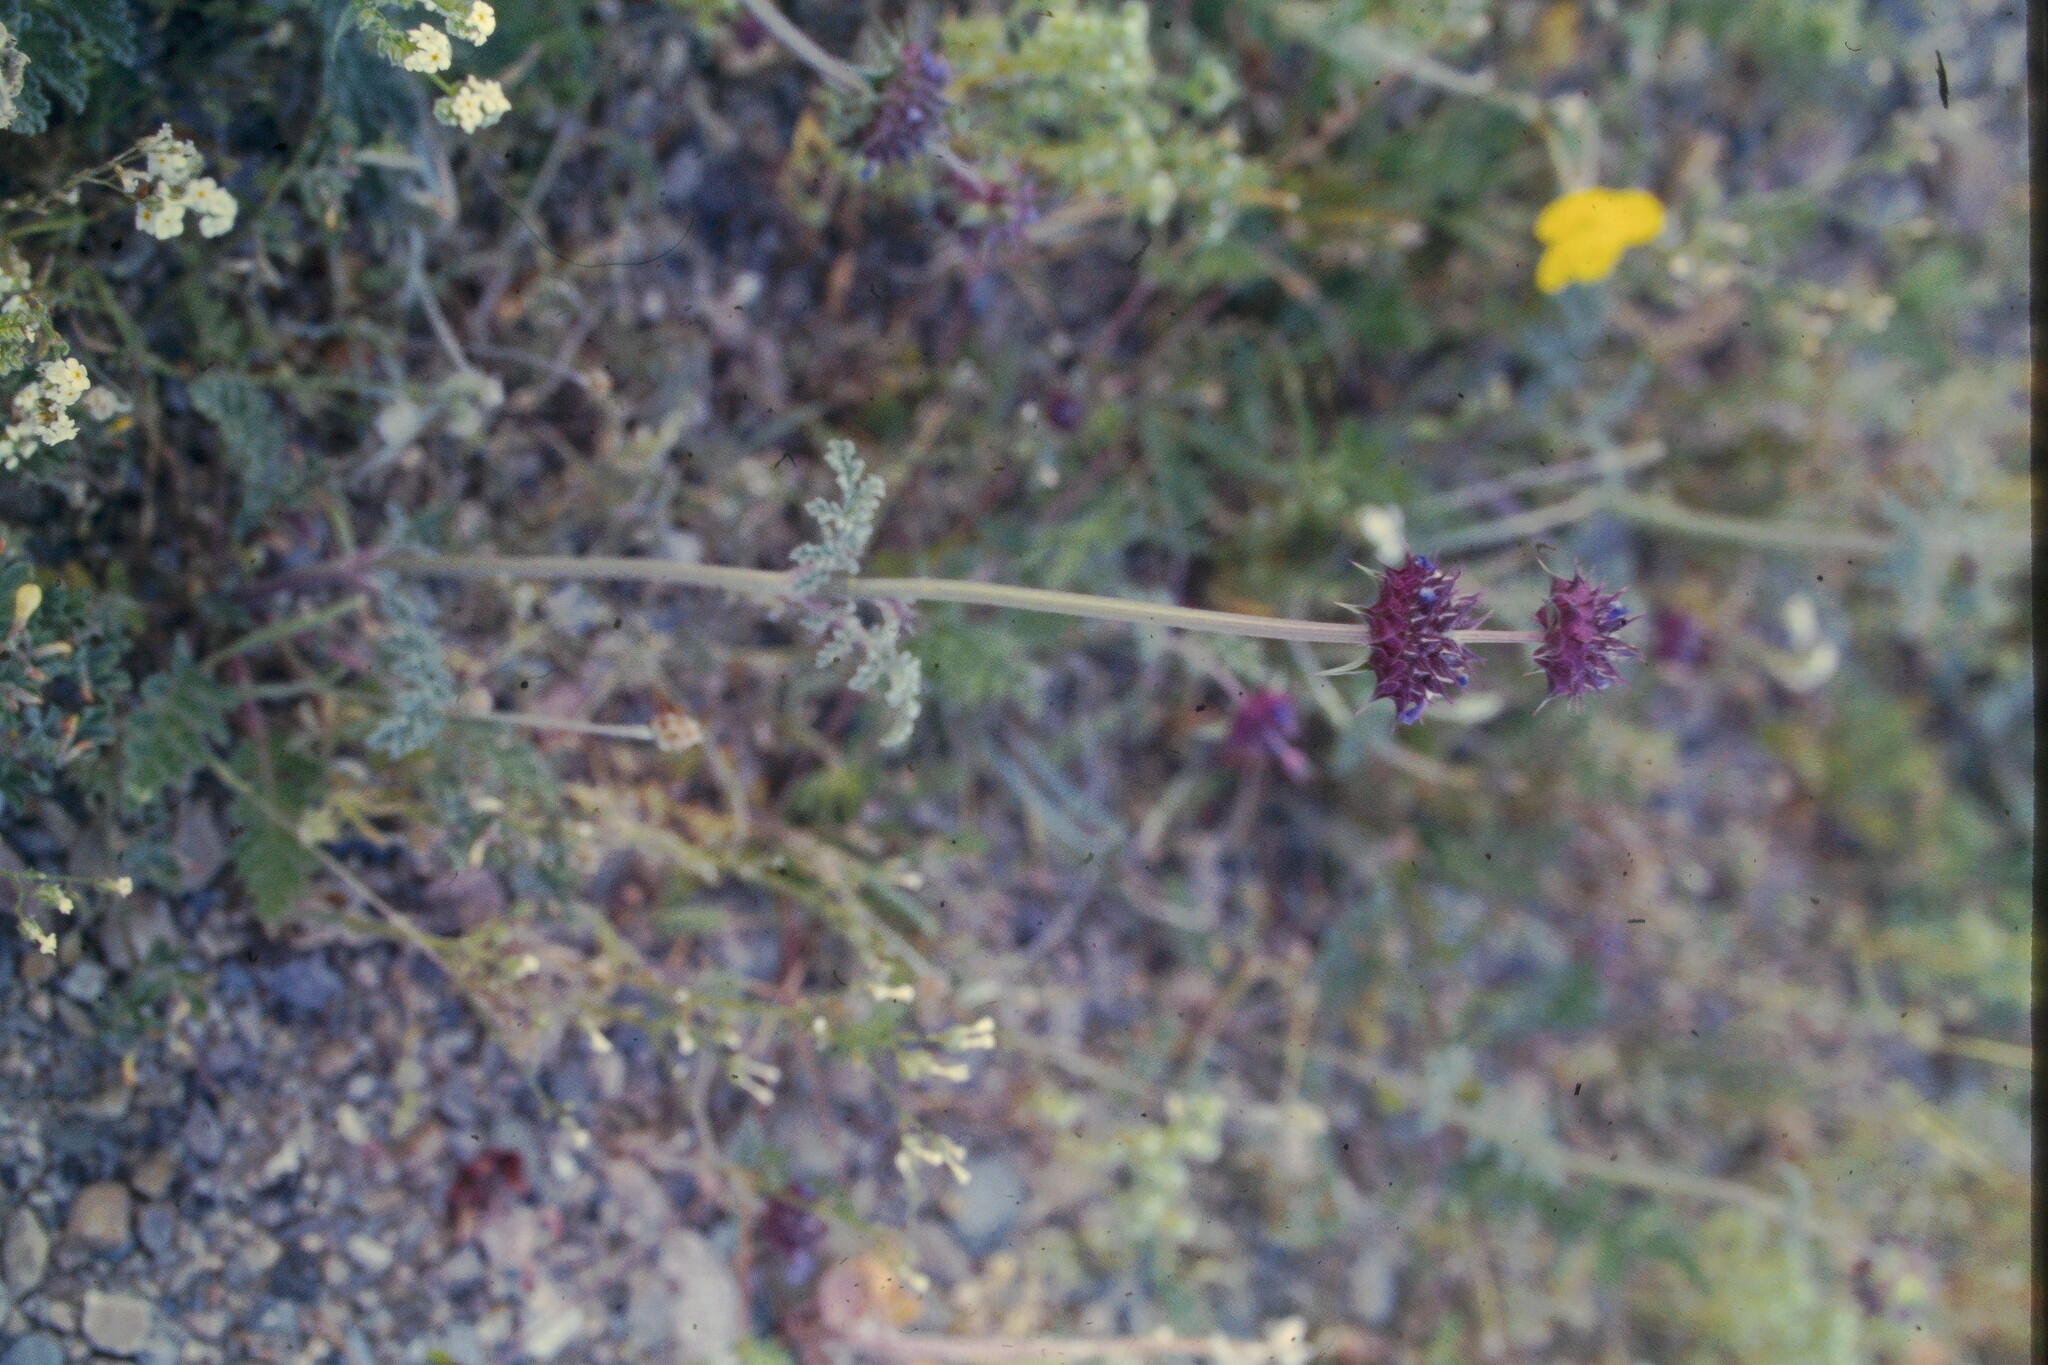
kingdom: Plantae
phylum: Tracheophyta
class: Magnoliopsida
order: Lamiales
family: Lamiaceae
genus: Salvia
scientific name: Salvia columbariae
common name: Chia
